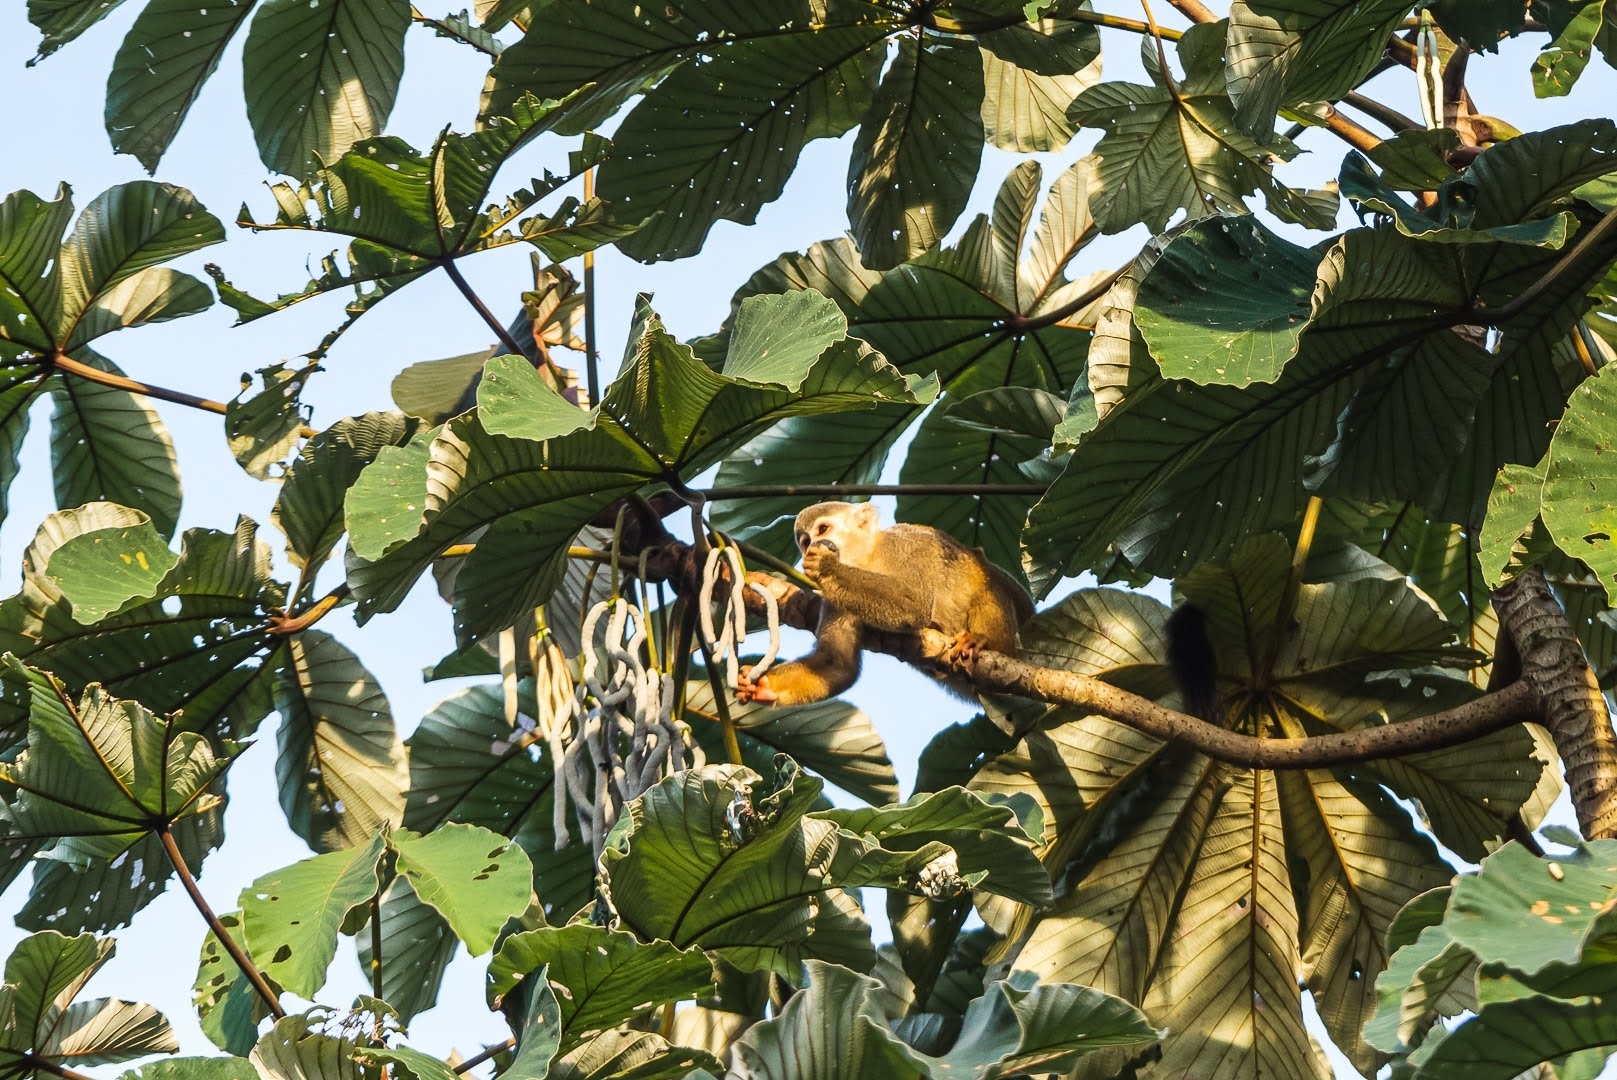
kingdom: Animalia
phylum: Chordata
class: Mammalia
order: Primates
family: Cebidae
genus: Saimiri
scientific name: Saimiri cassiquiarensis
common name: Humboldt’s squirrel monkey
